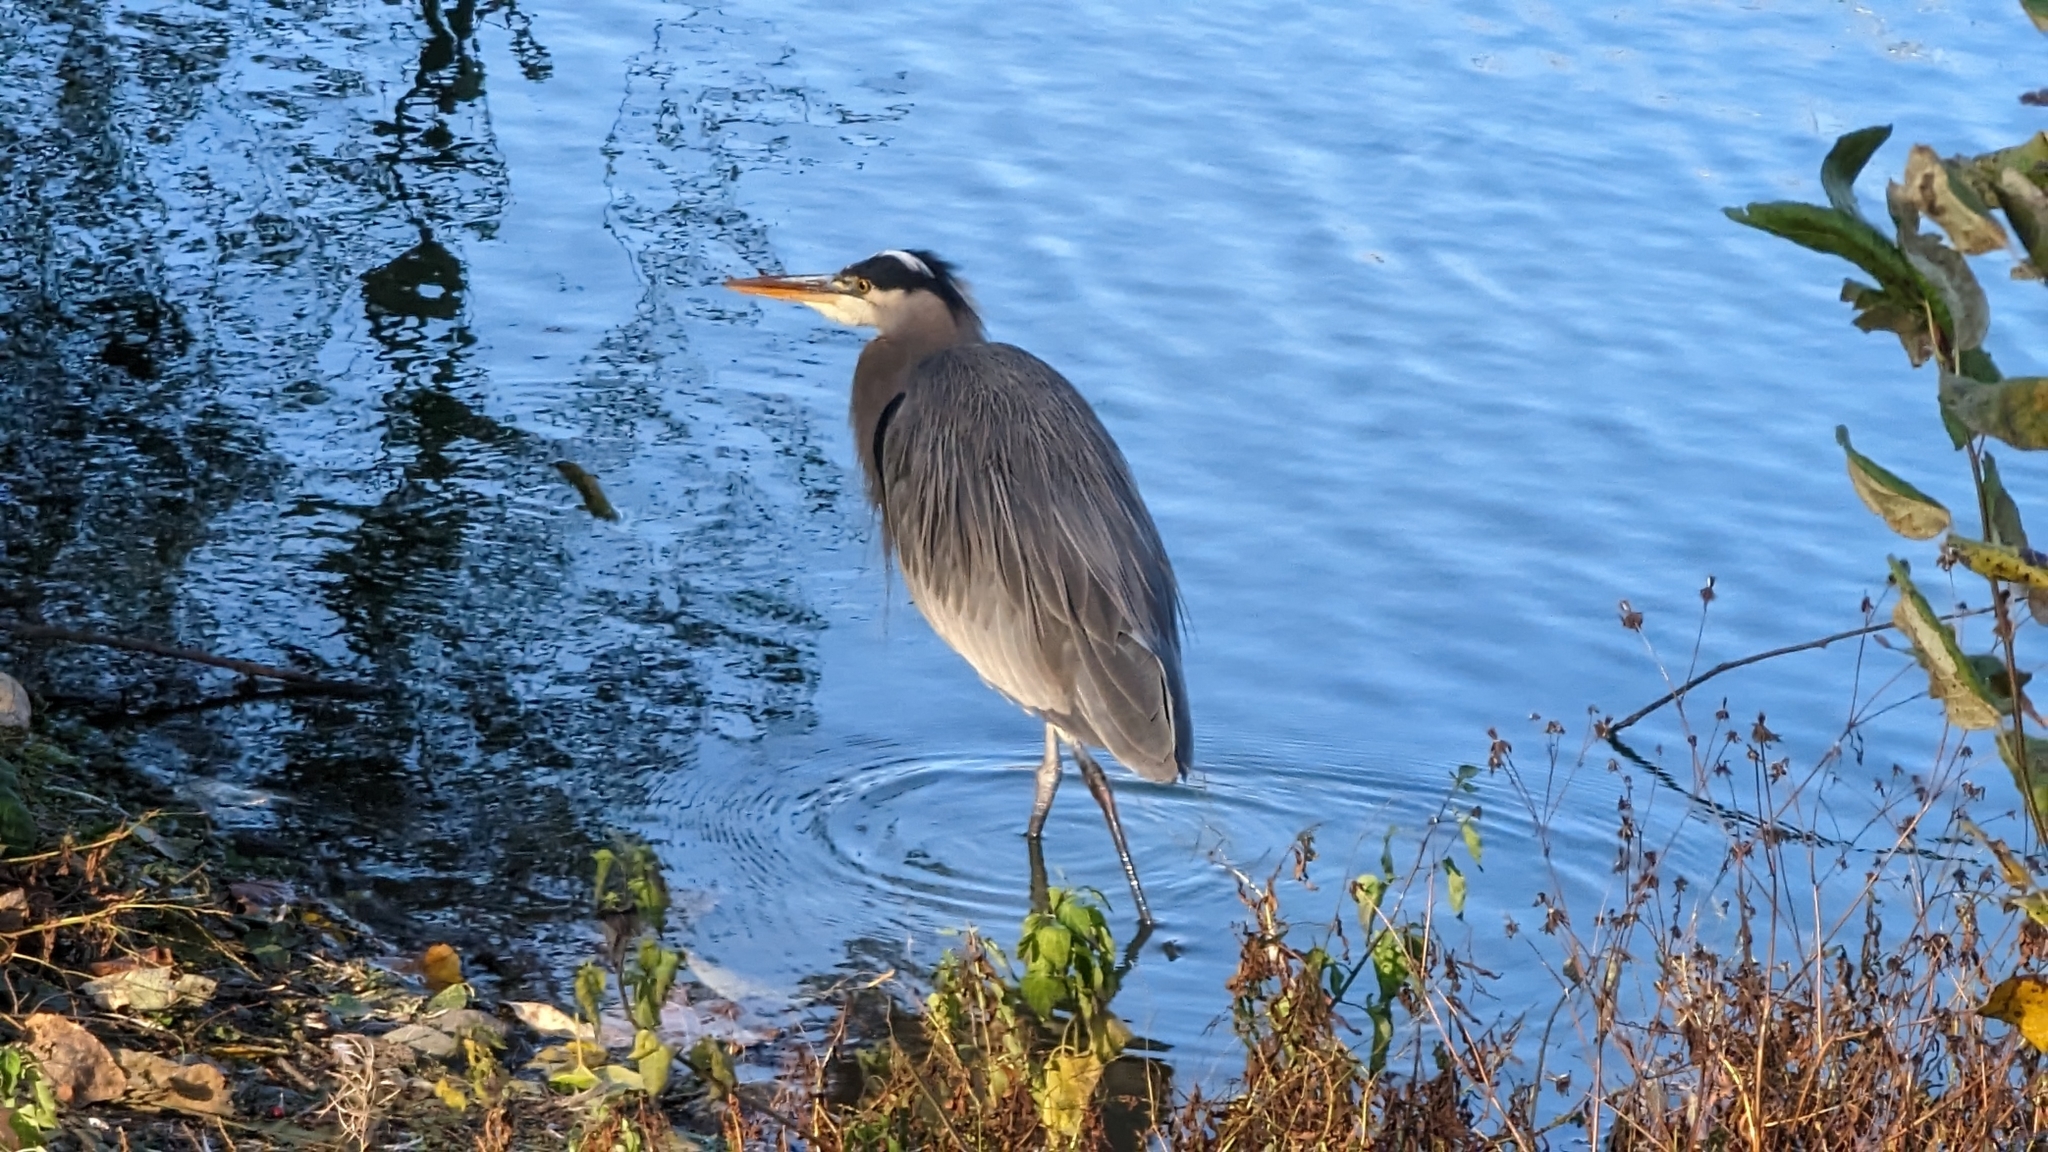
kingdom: Animalia
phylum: Chordata
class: Aves
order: Pelecaniformes
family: Ardeidae
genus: Ardea
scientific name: Ardea herodias
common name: Great blue heron
